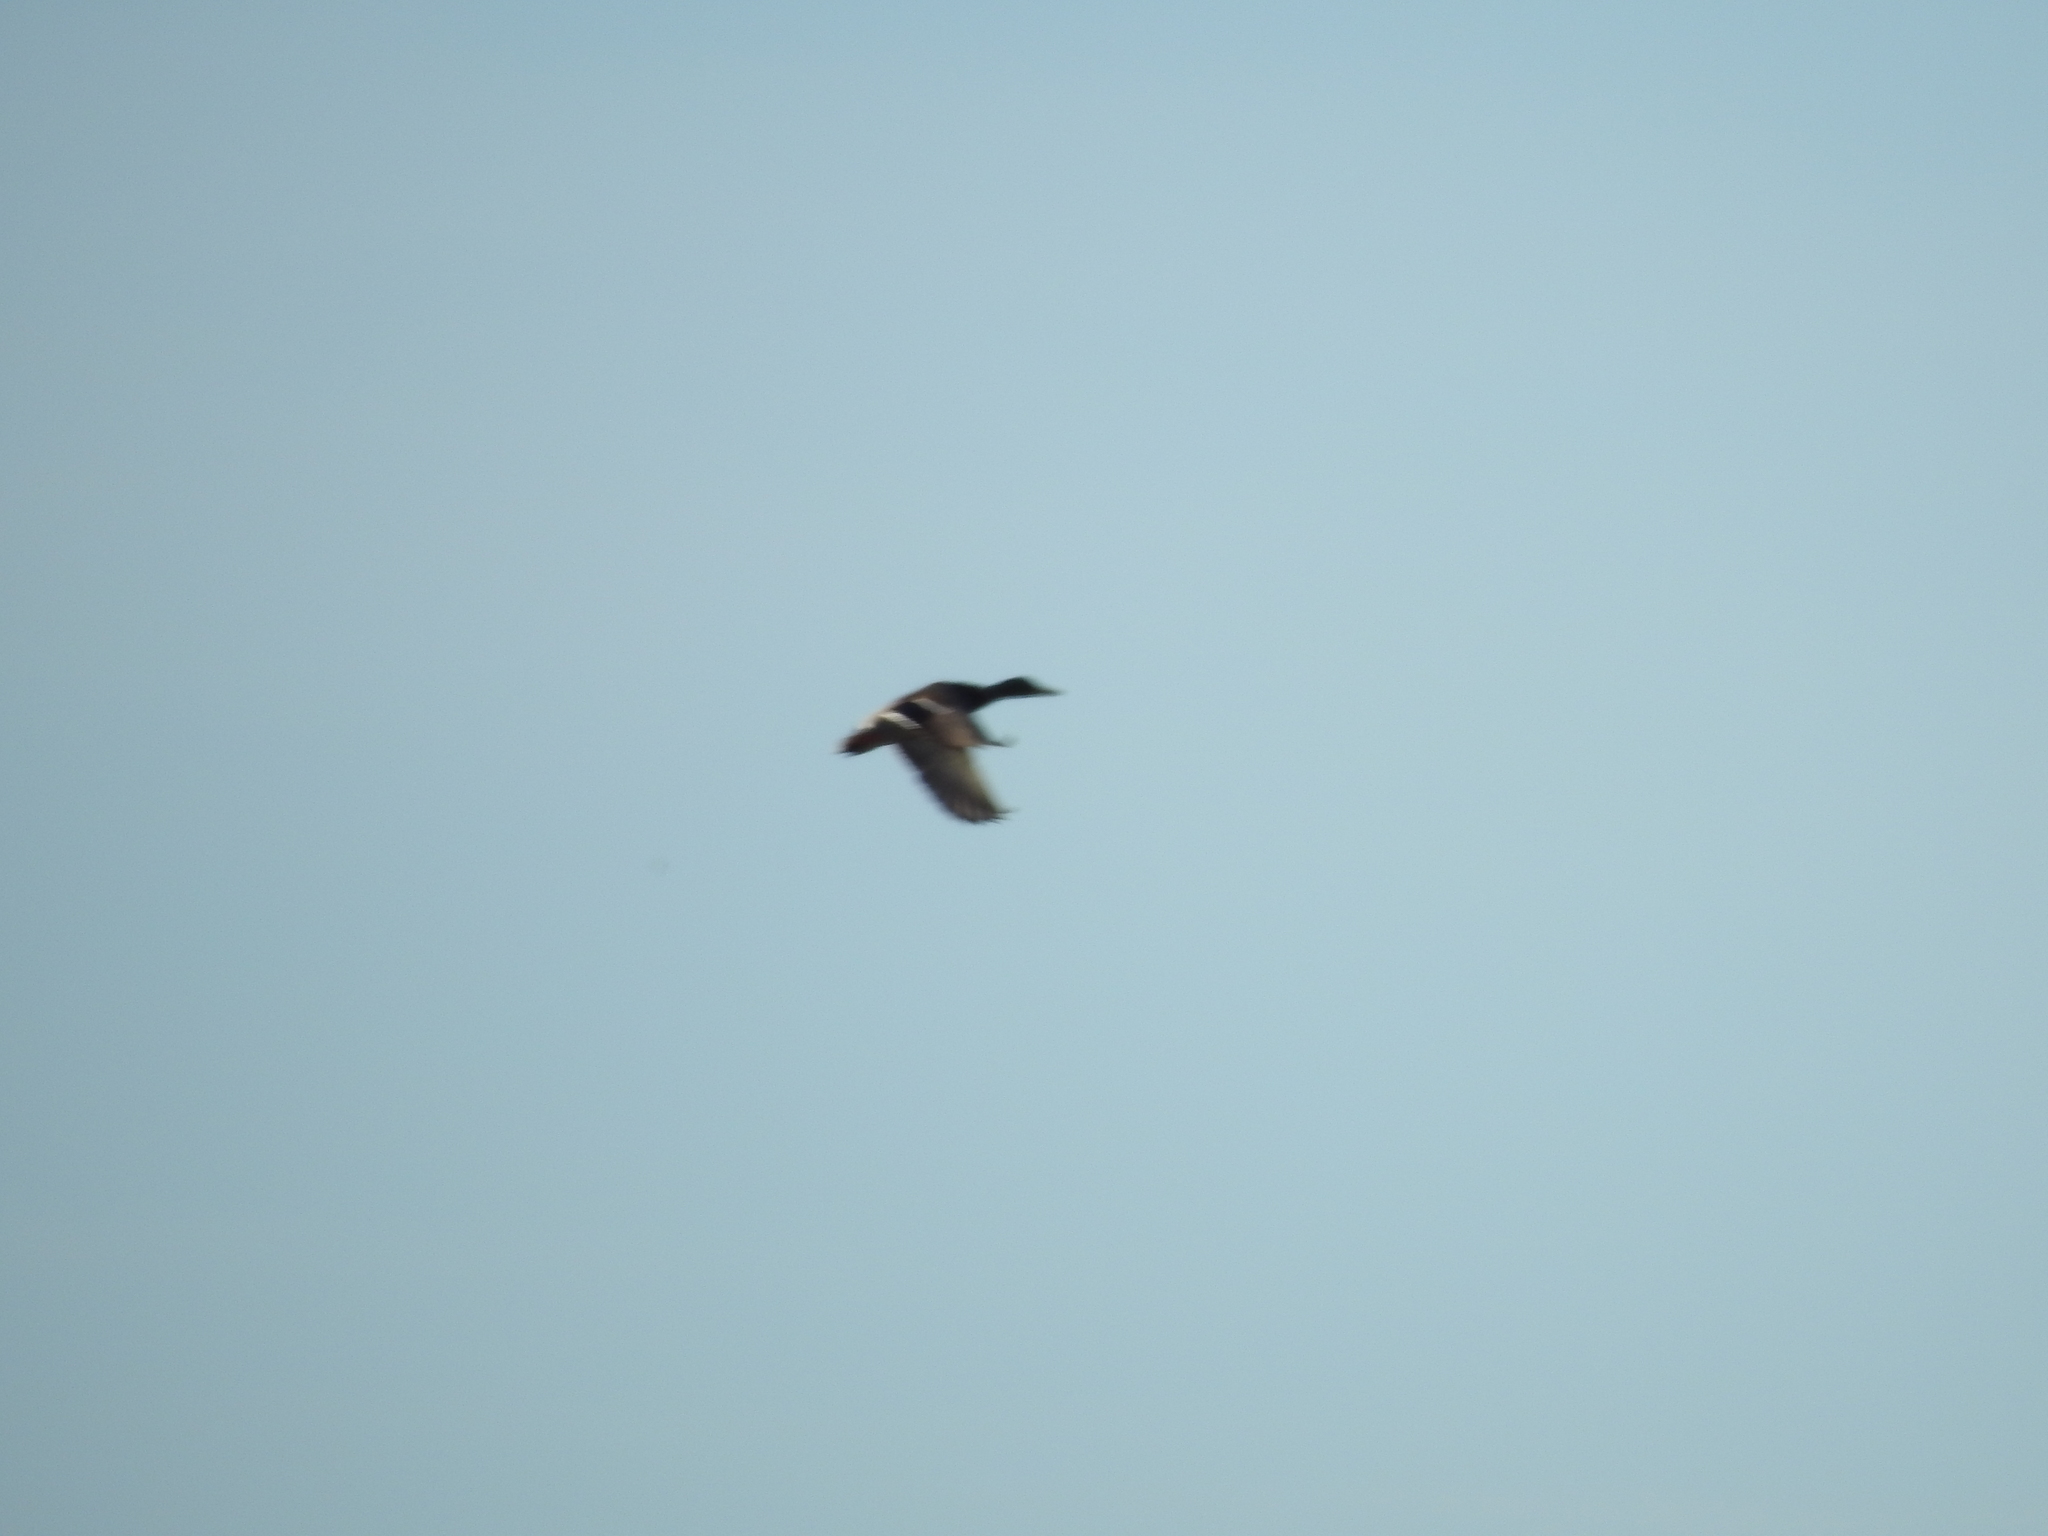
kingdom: Animalia
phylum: Chordata
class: Aves
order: Anseriformes
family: Anatidae
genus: Anas
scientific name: Anas platyrhynchos
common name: Mallard
